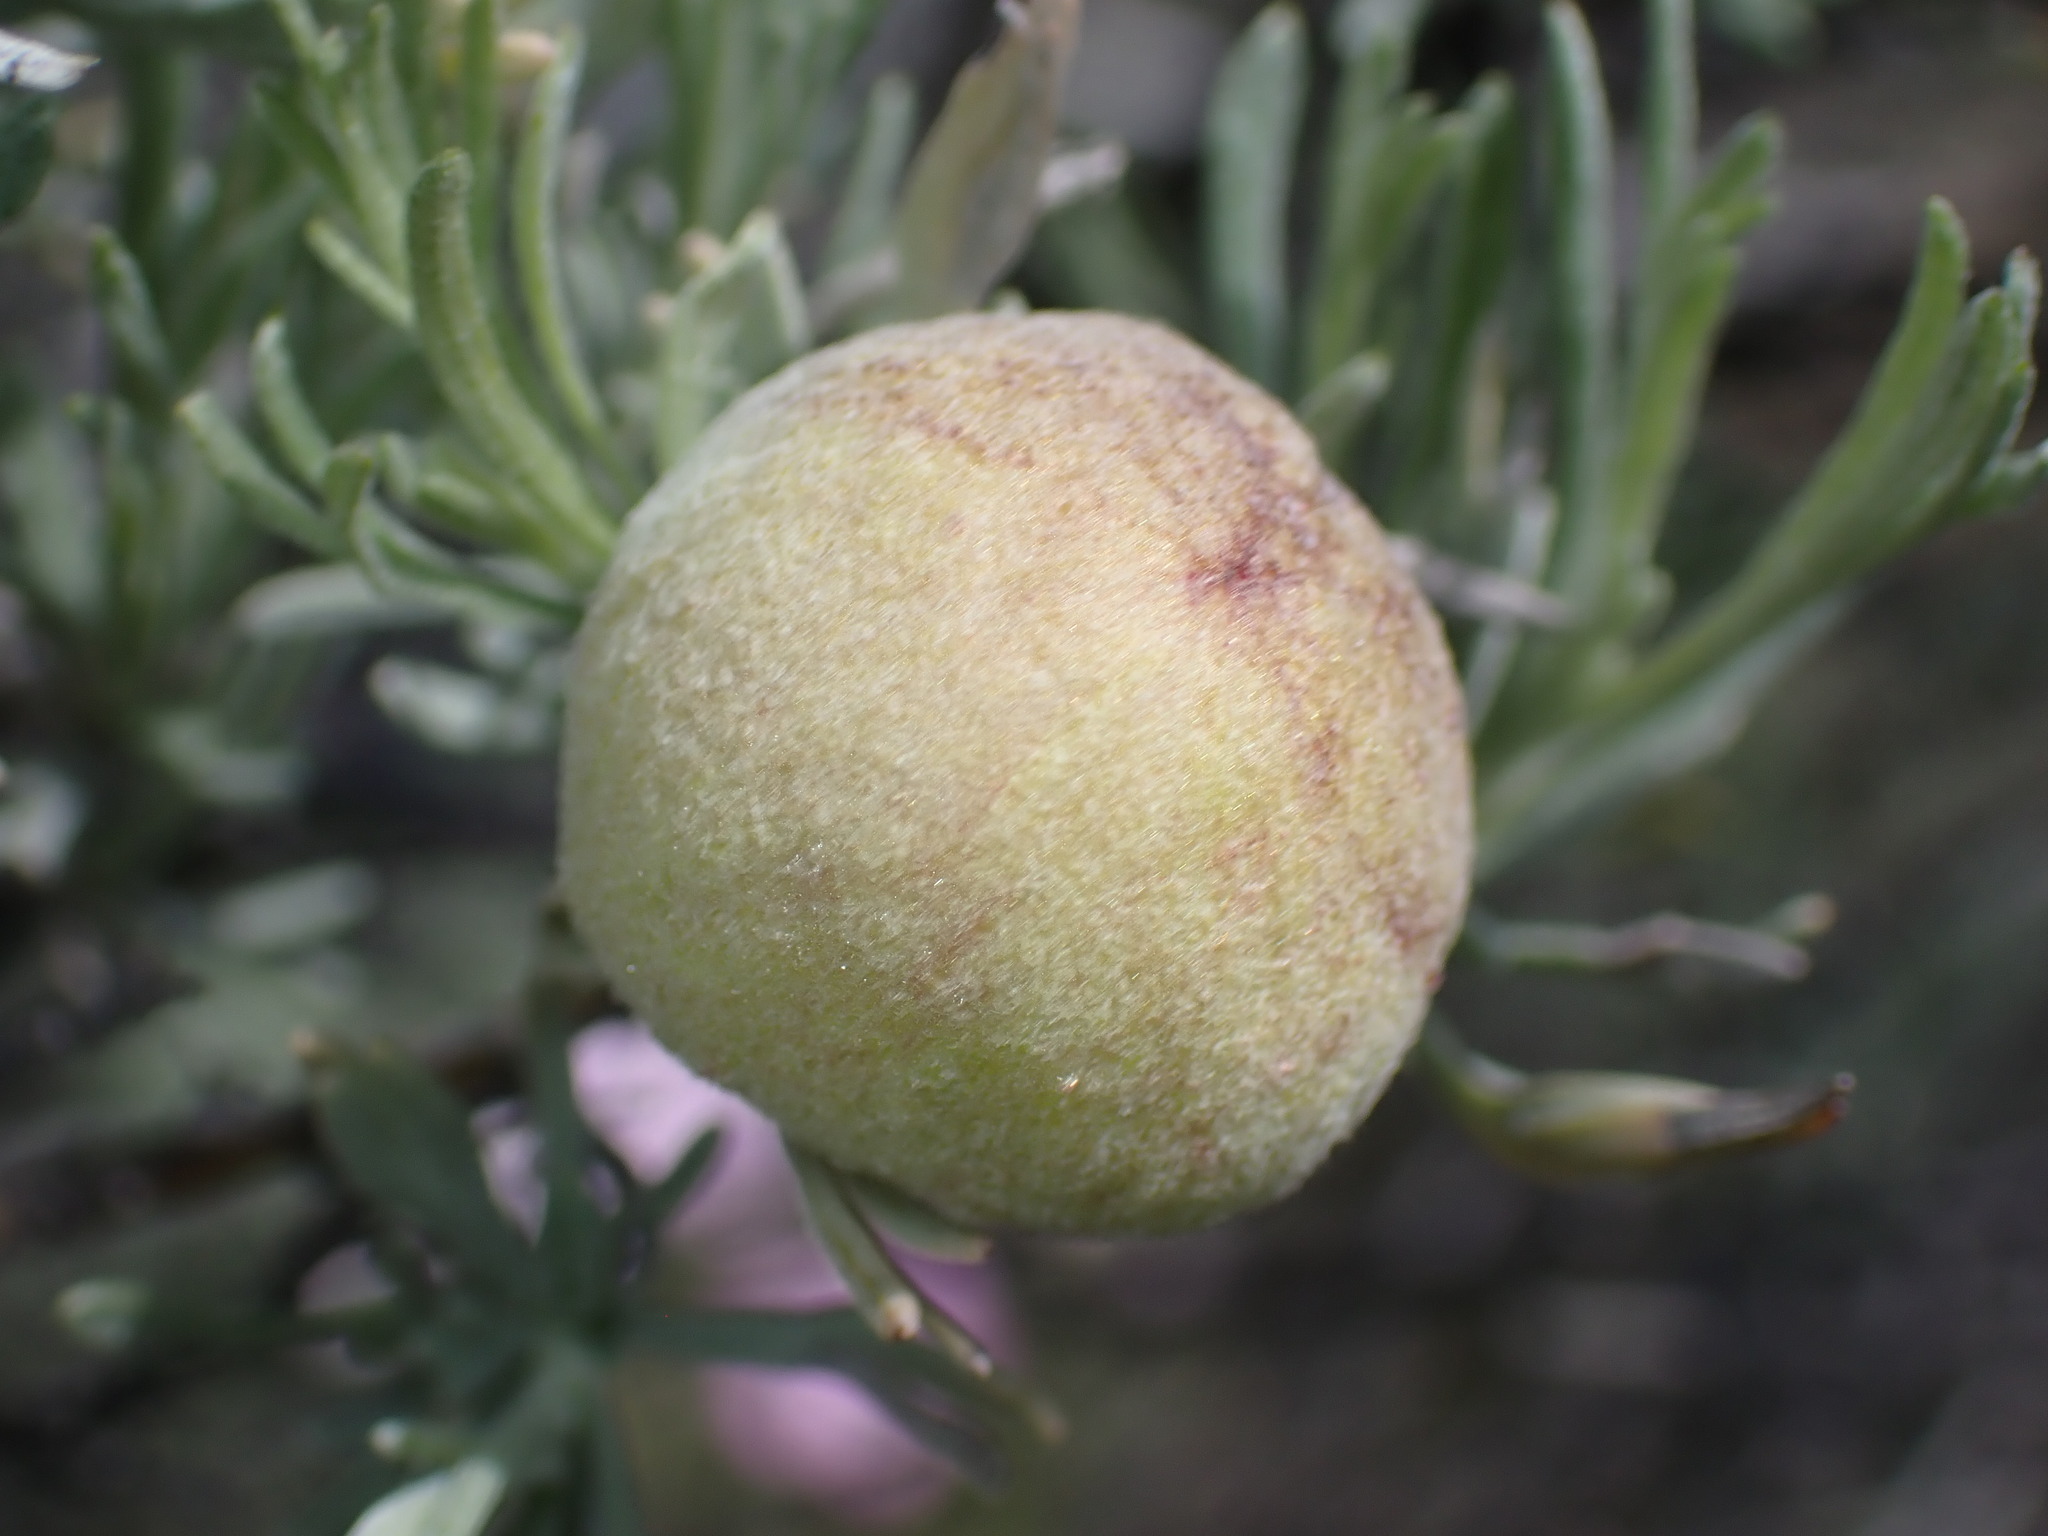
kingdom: Animalia
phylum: Arthropoda
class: Insecta
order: Diptera
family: Cecidomyiidae
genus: Rhopalomyia
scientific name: Rhopalomyia pomum
